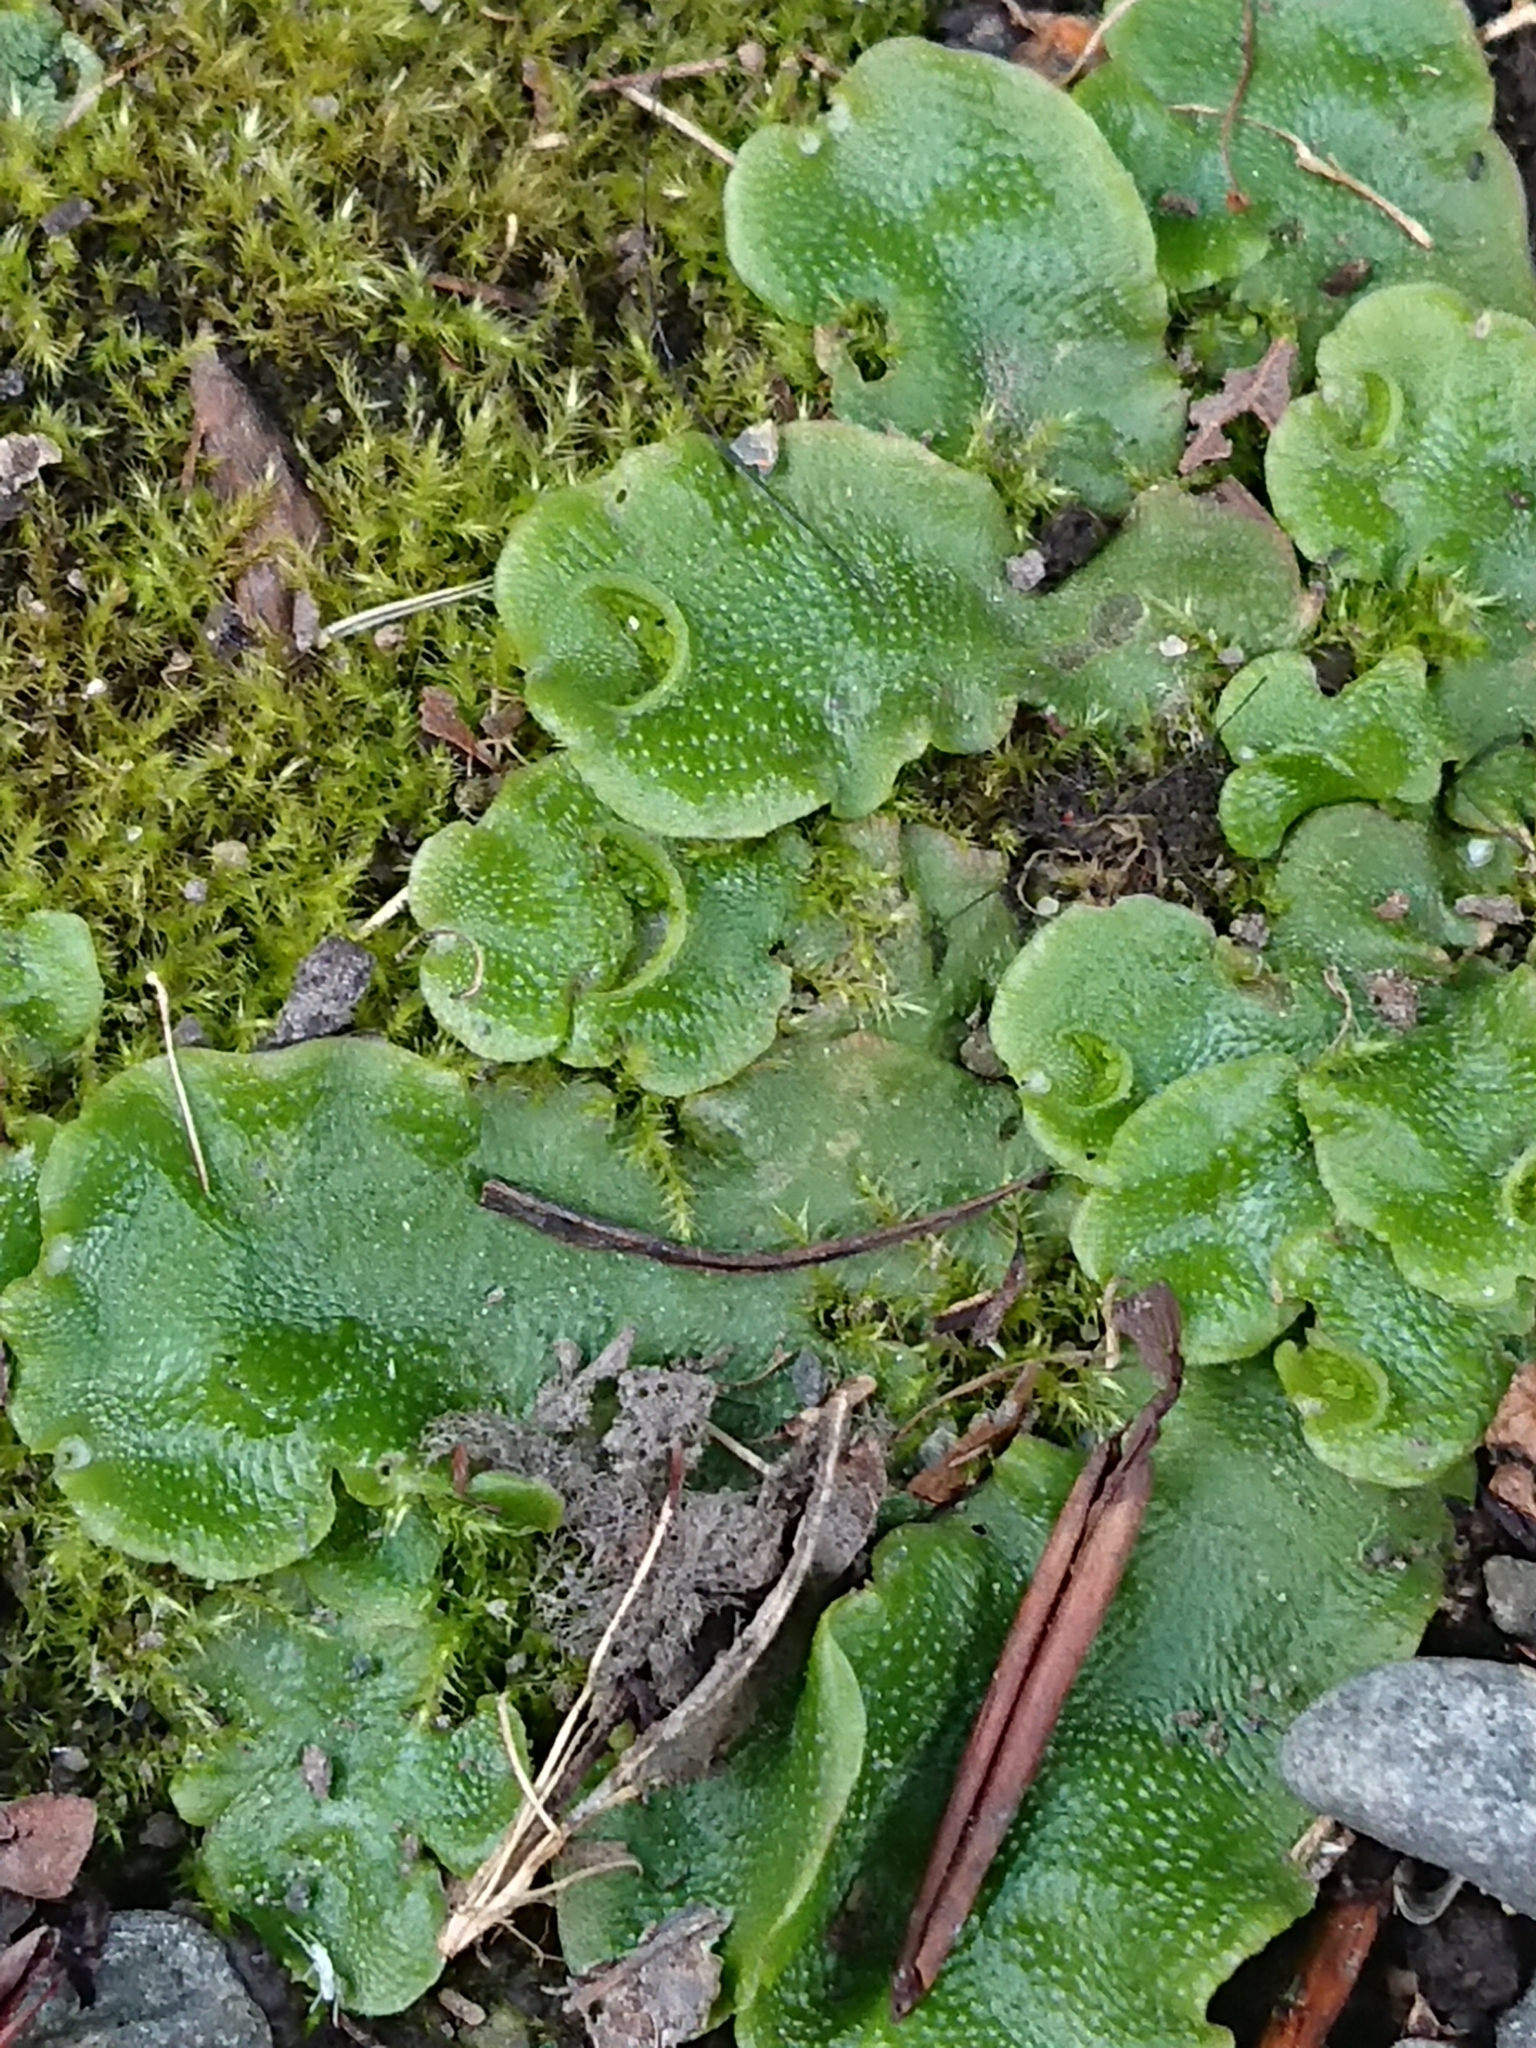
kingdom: Plantae
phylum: Marchantiophyta
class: Marchantiopsida
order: Lunulariales
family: Lunulariaceae
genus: Lunularia
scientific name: Lunularia cruciata
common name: Crescent-cup liverwort
